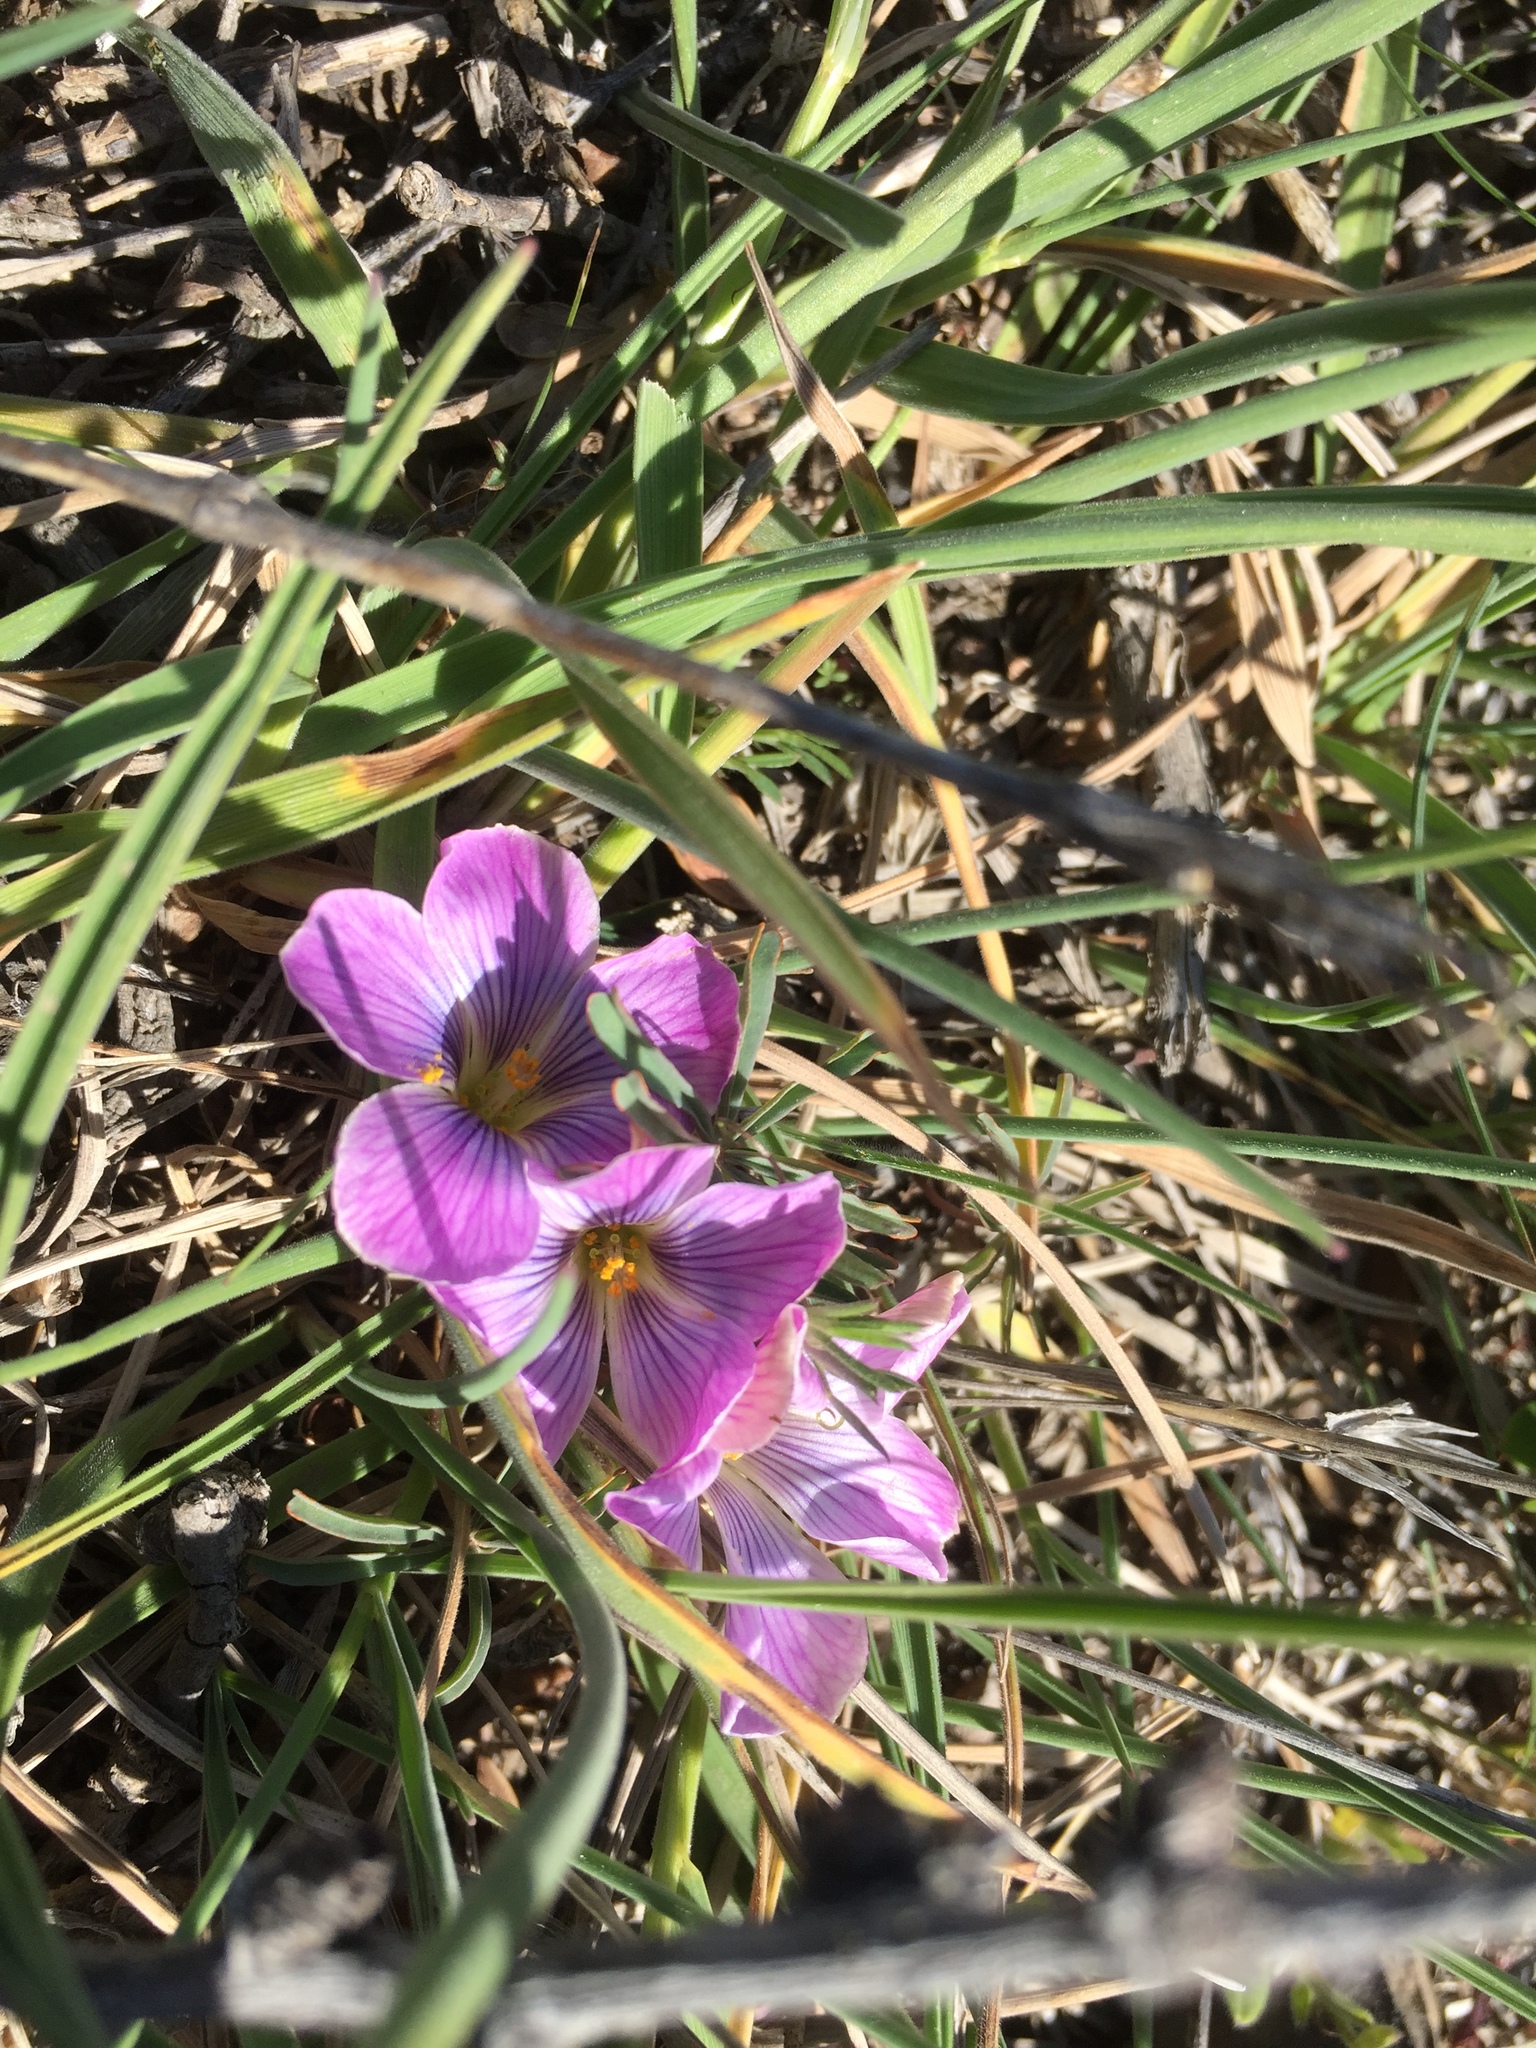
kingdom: Plantae
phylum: Tracheophyta
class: Magnoliopsida
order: Oxalidales
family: Oxalidaceae
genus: Oxalis
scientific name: Oxalis laciniata
